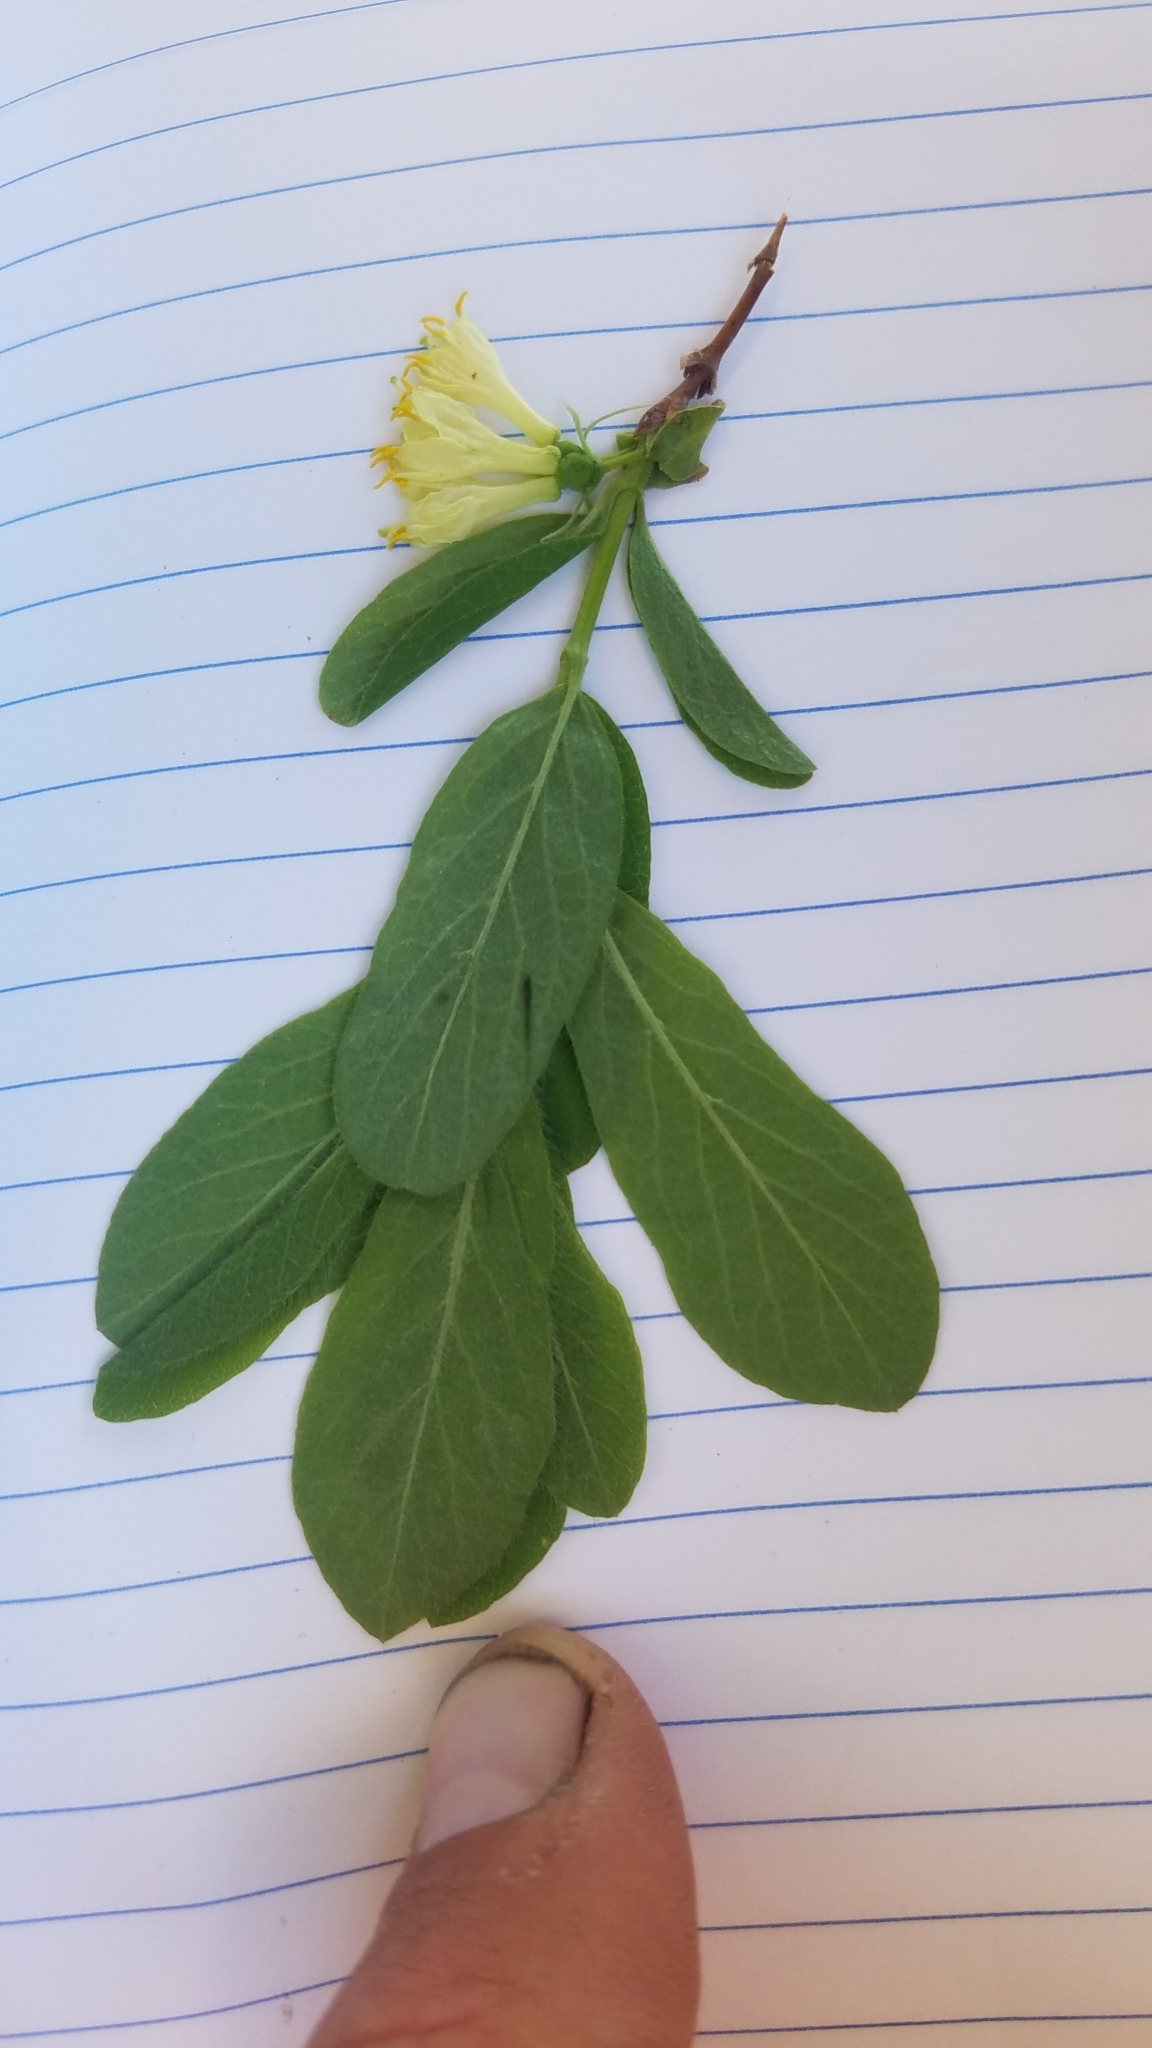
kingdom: Plantae
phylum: Tracheophyta
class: Magnoliopsida
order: Dipsacales
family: Caprifoliaceae
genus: Lonicera
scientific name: Lonicera caerulea
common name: Blue honeysuckle
